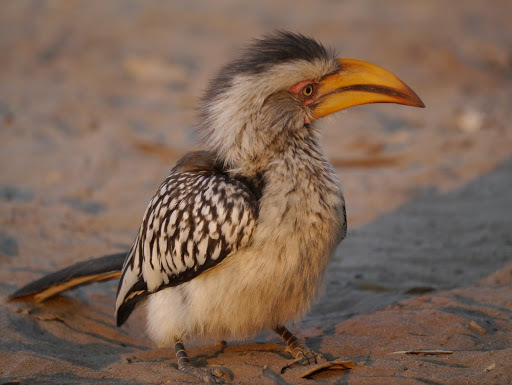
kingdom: Animalia
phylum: Chordata
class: Aves
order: Bucerotiformes
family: Bucerotidae
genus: Tockus
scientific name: Tockus leucomelas
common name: Southern yellow-billed hornbill
